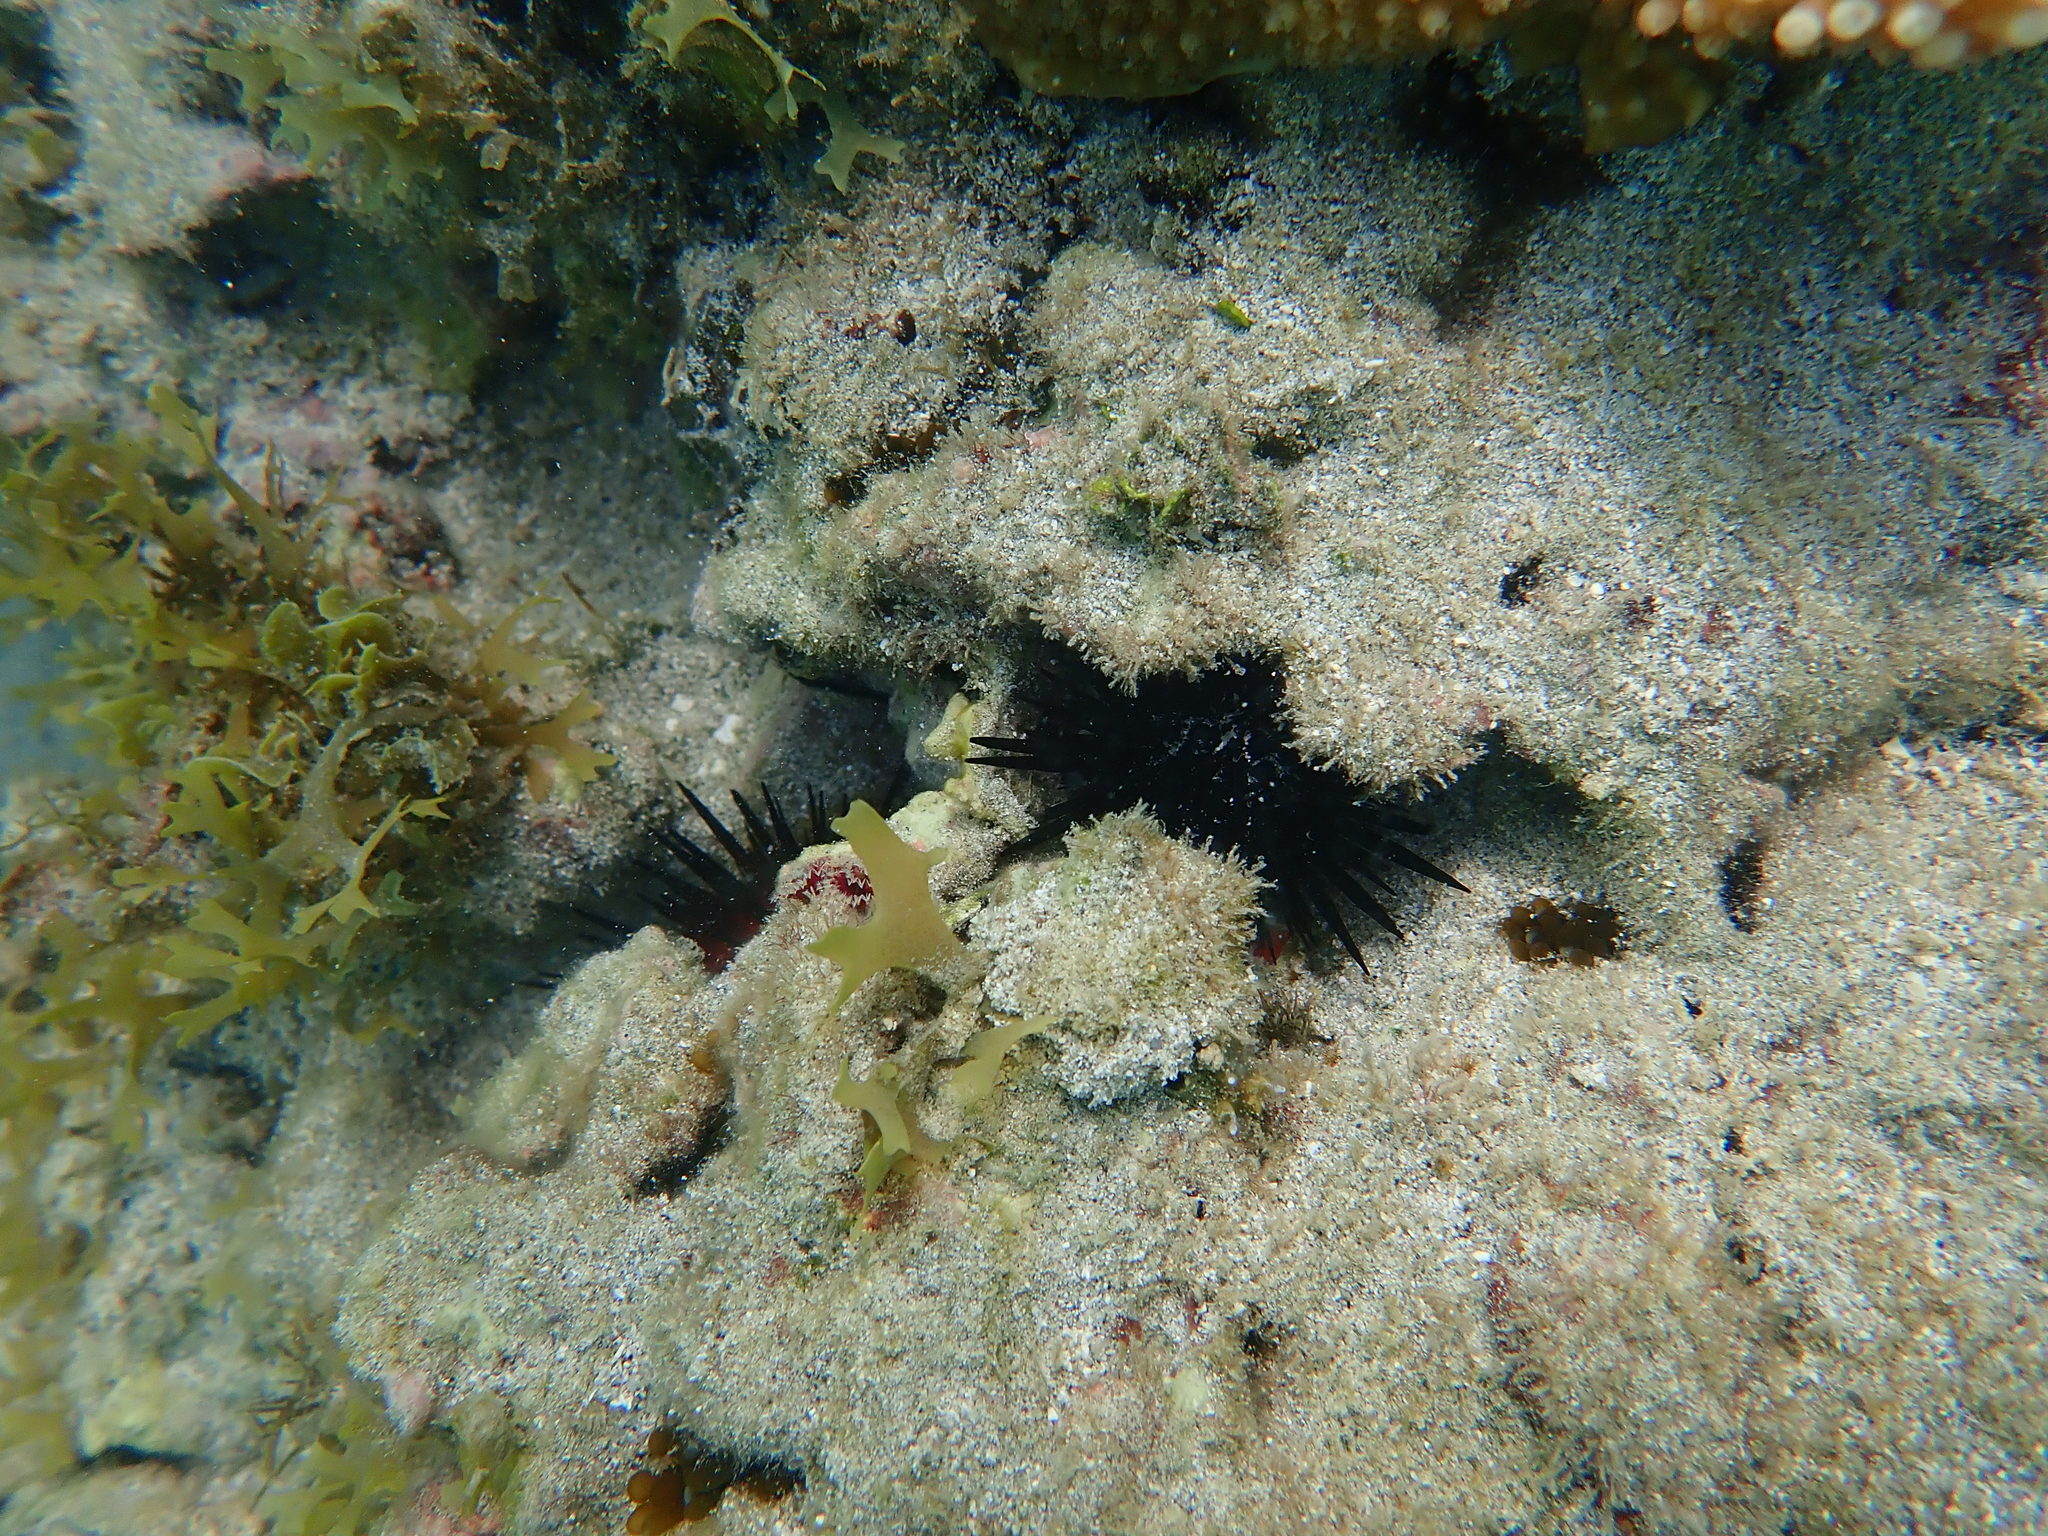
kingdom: Animalia
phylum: Echinodermata
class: Echinoidea
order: Camarodonta
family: Echinometridae
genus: Echinometra
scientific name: Echinometra lucunter
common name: Rock urchin
